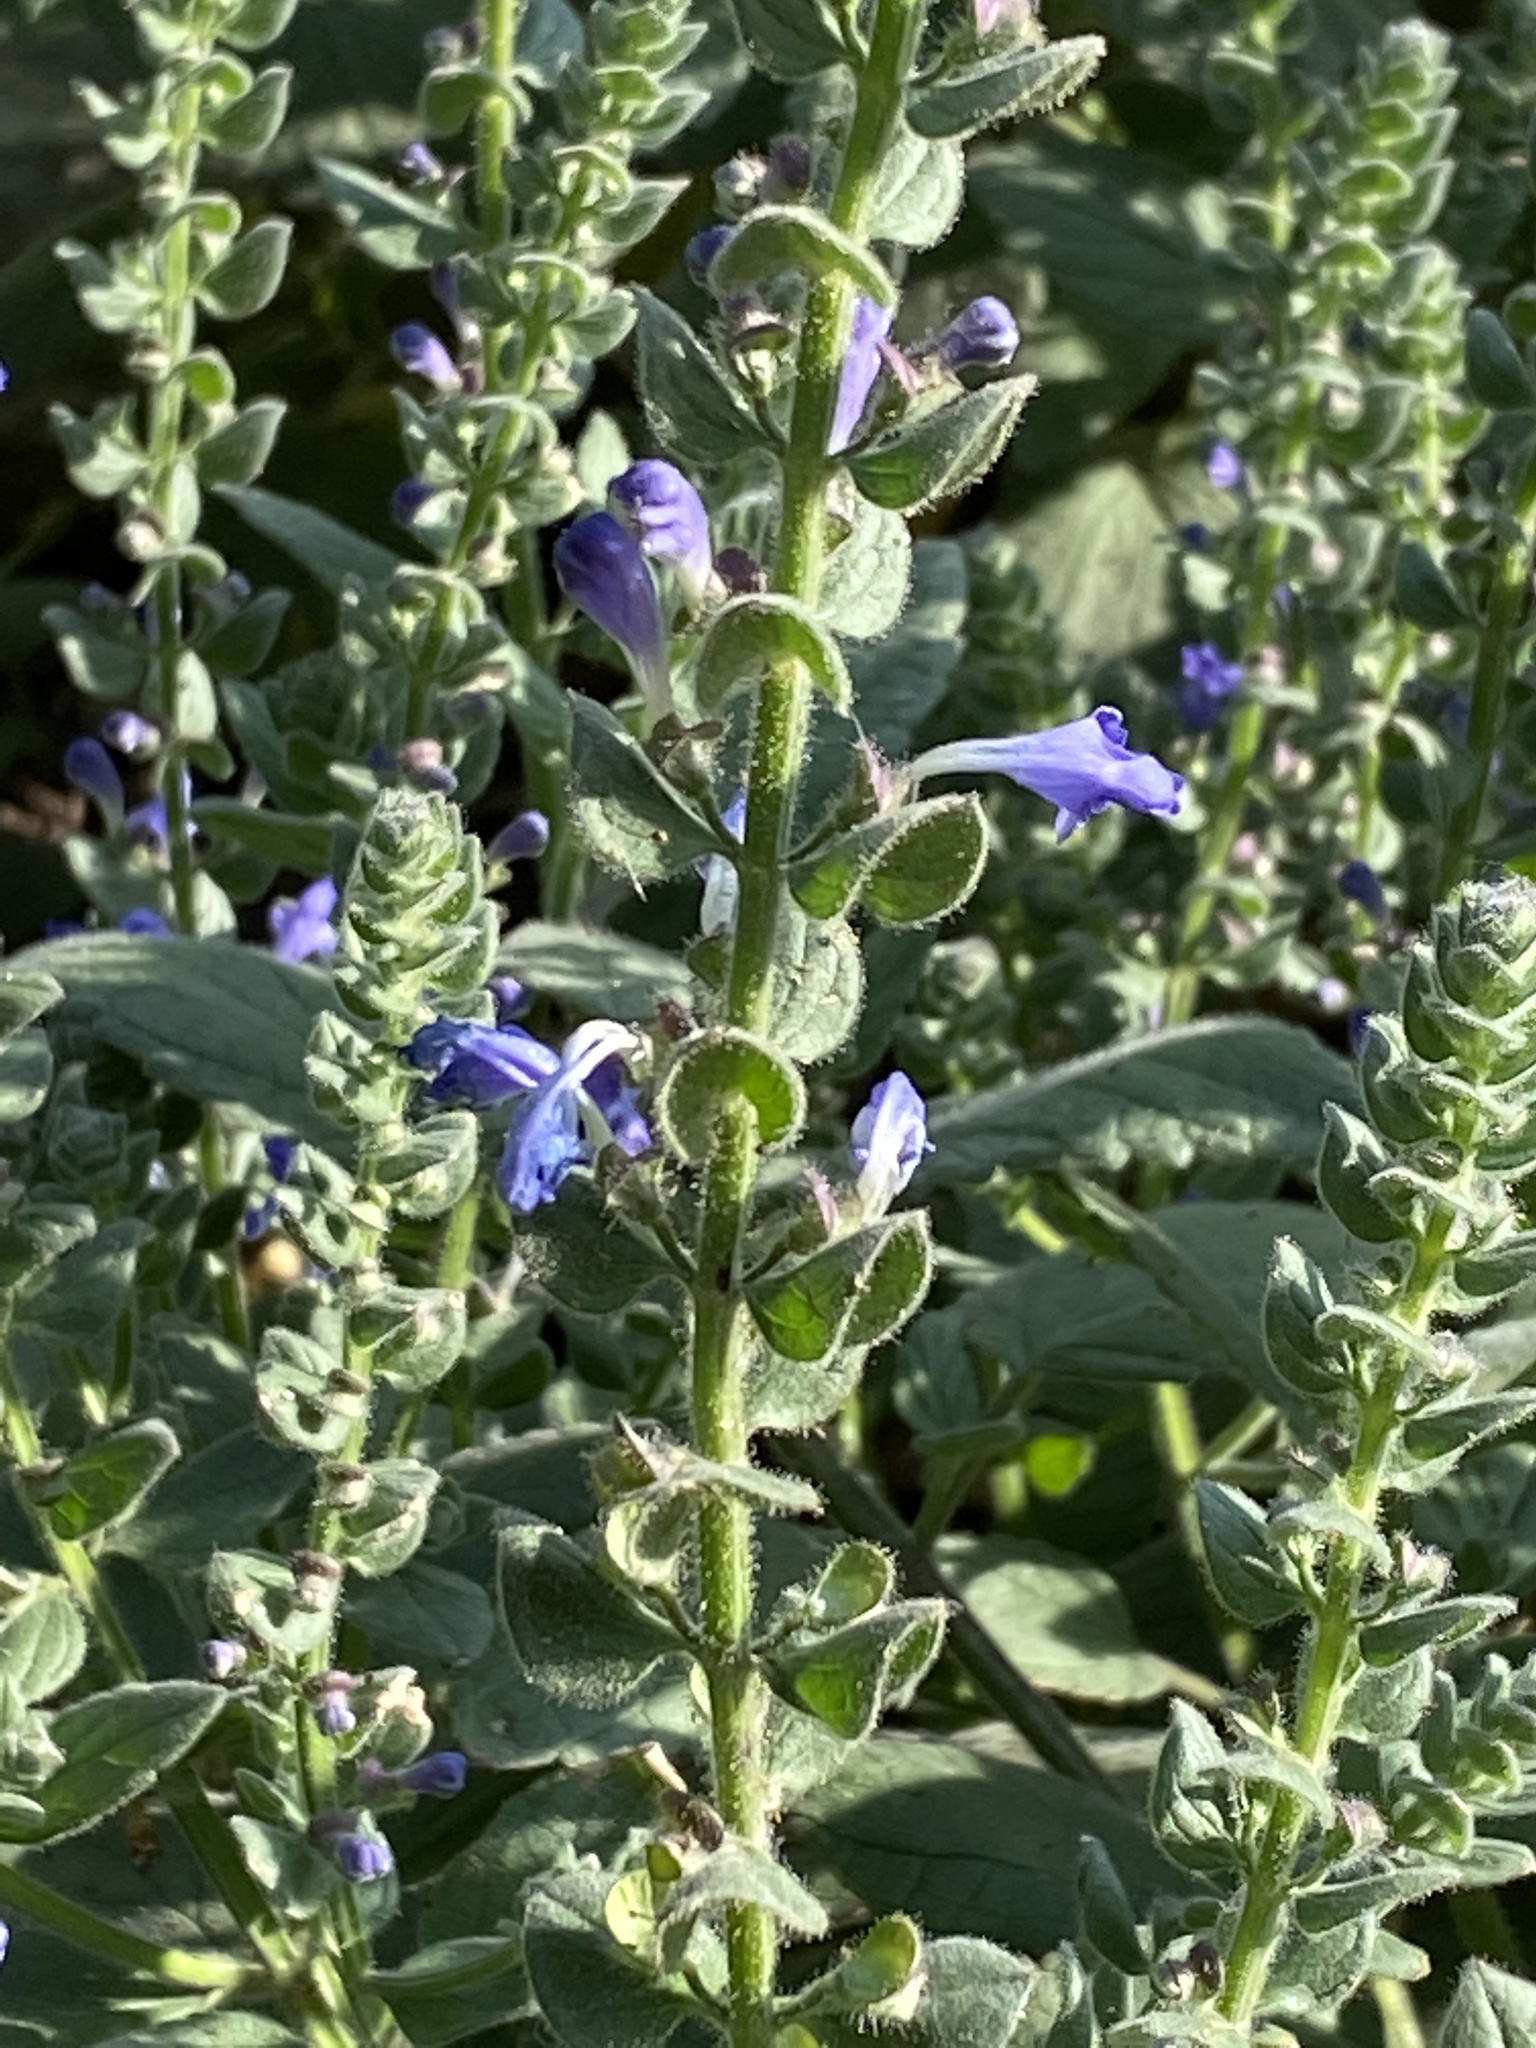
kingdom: Plantae
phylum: Tracheophyta
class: Magnoliopsida
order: Lamiales
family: Lamiaceae
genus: Scutellaria
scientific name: Scutellaria ovata
